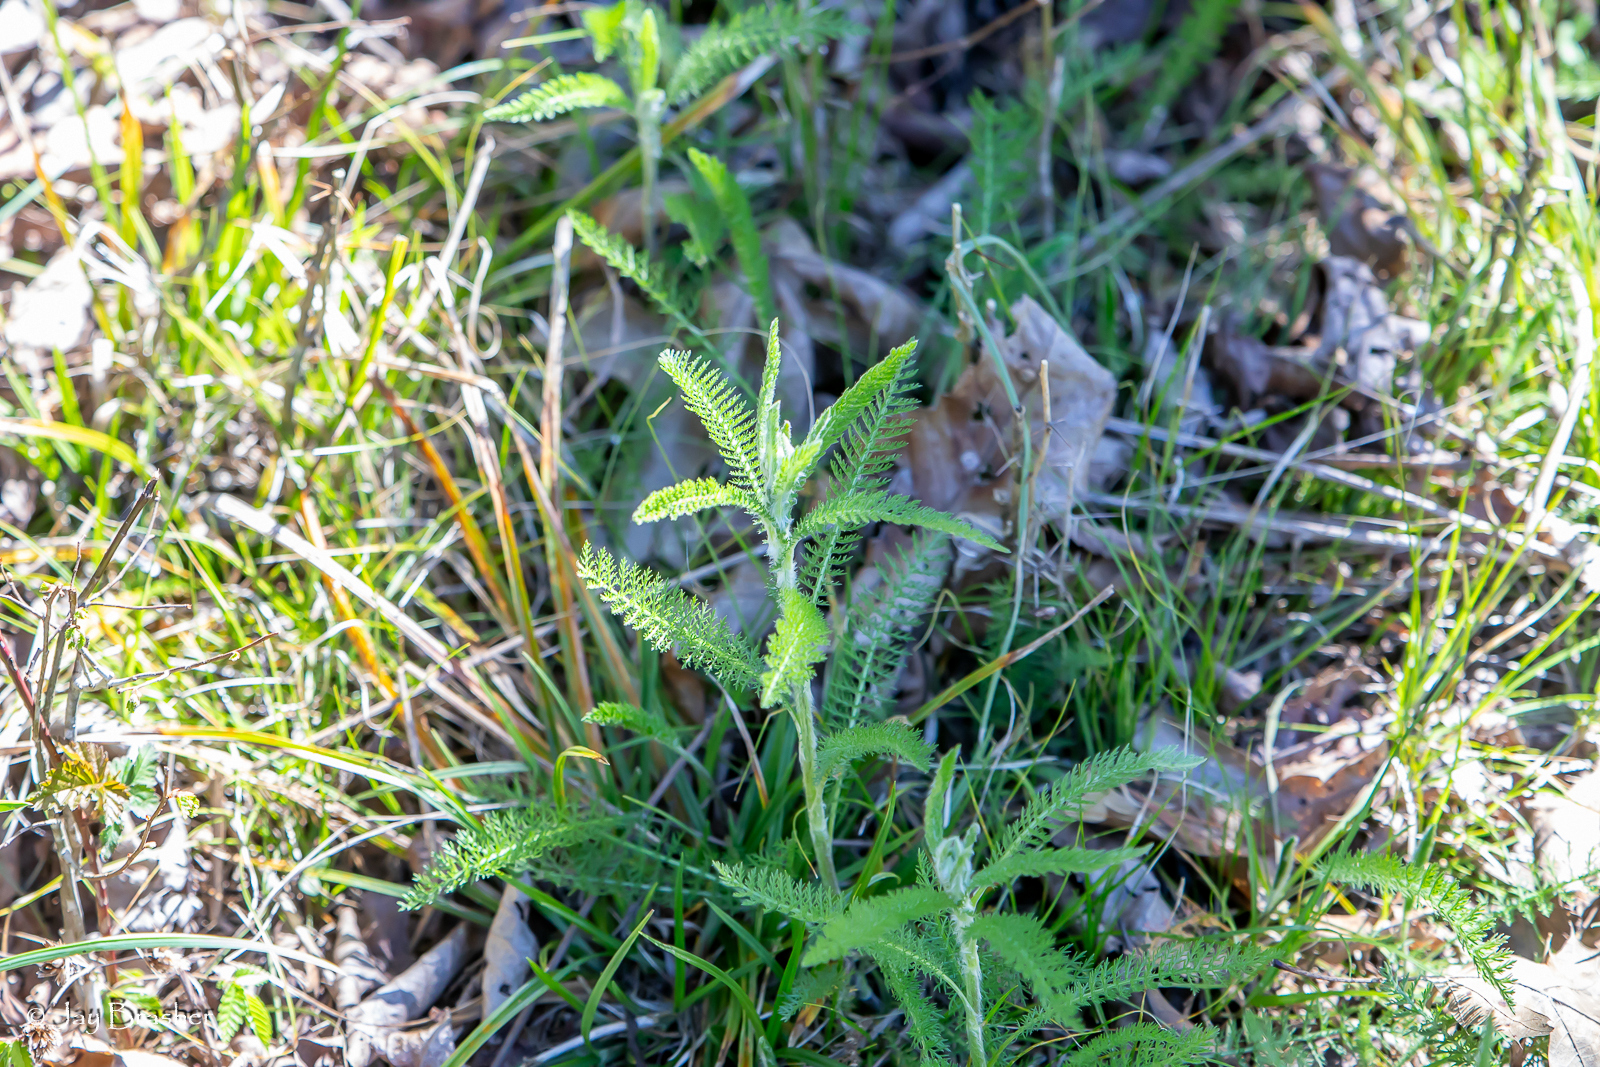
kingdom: Plantae
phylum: Tracheophyta
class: Magnoliopsida
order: Asterales
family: Asteraceae
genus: Achillea
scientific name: Achillea millefolium
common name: Yarrow
